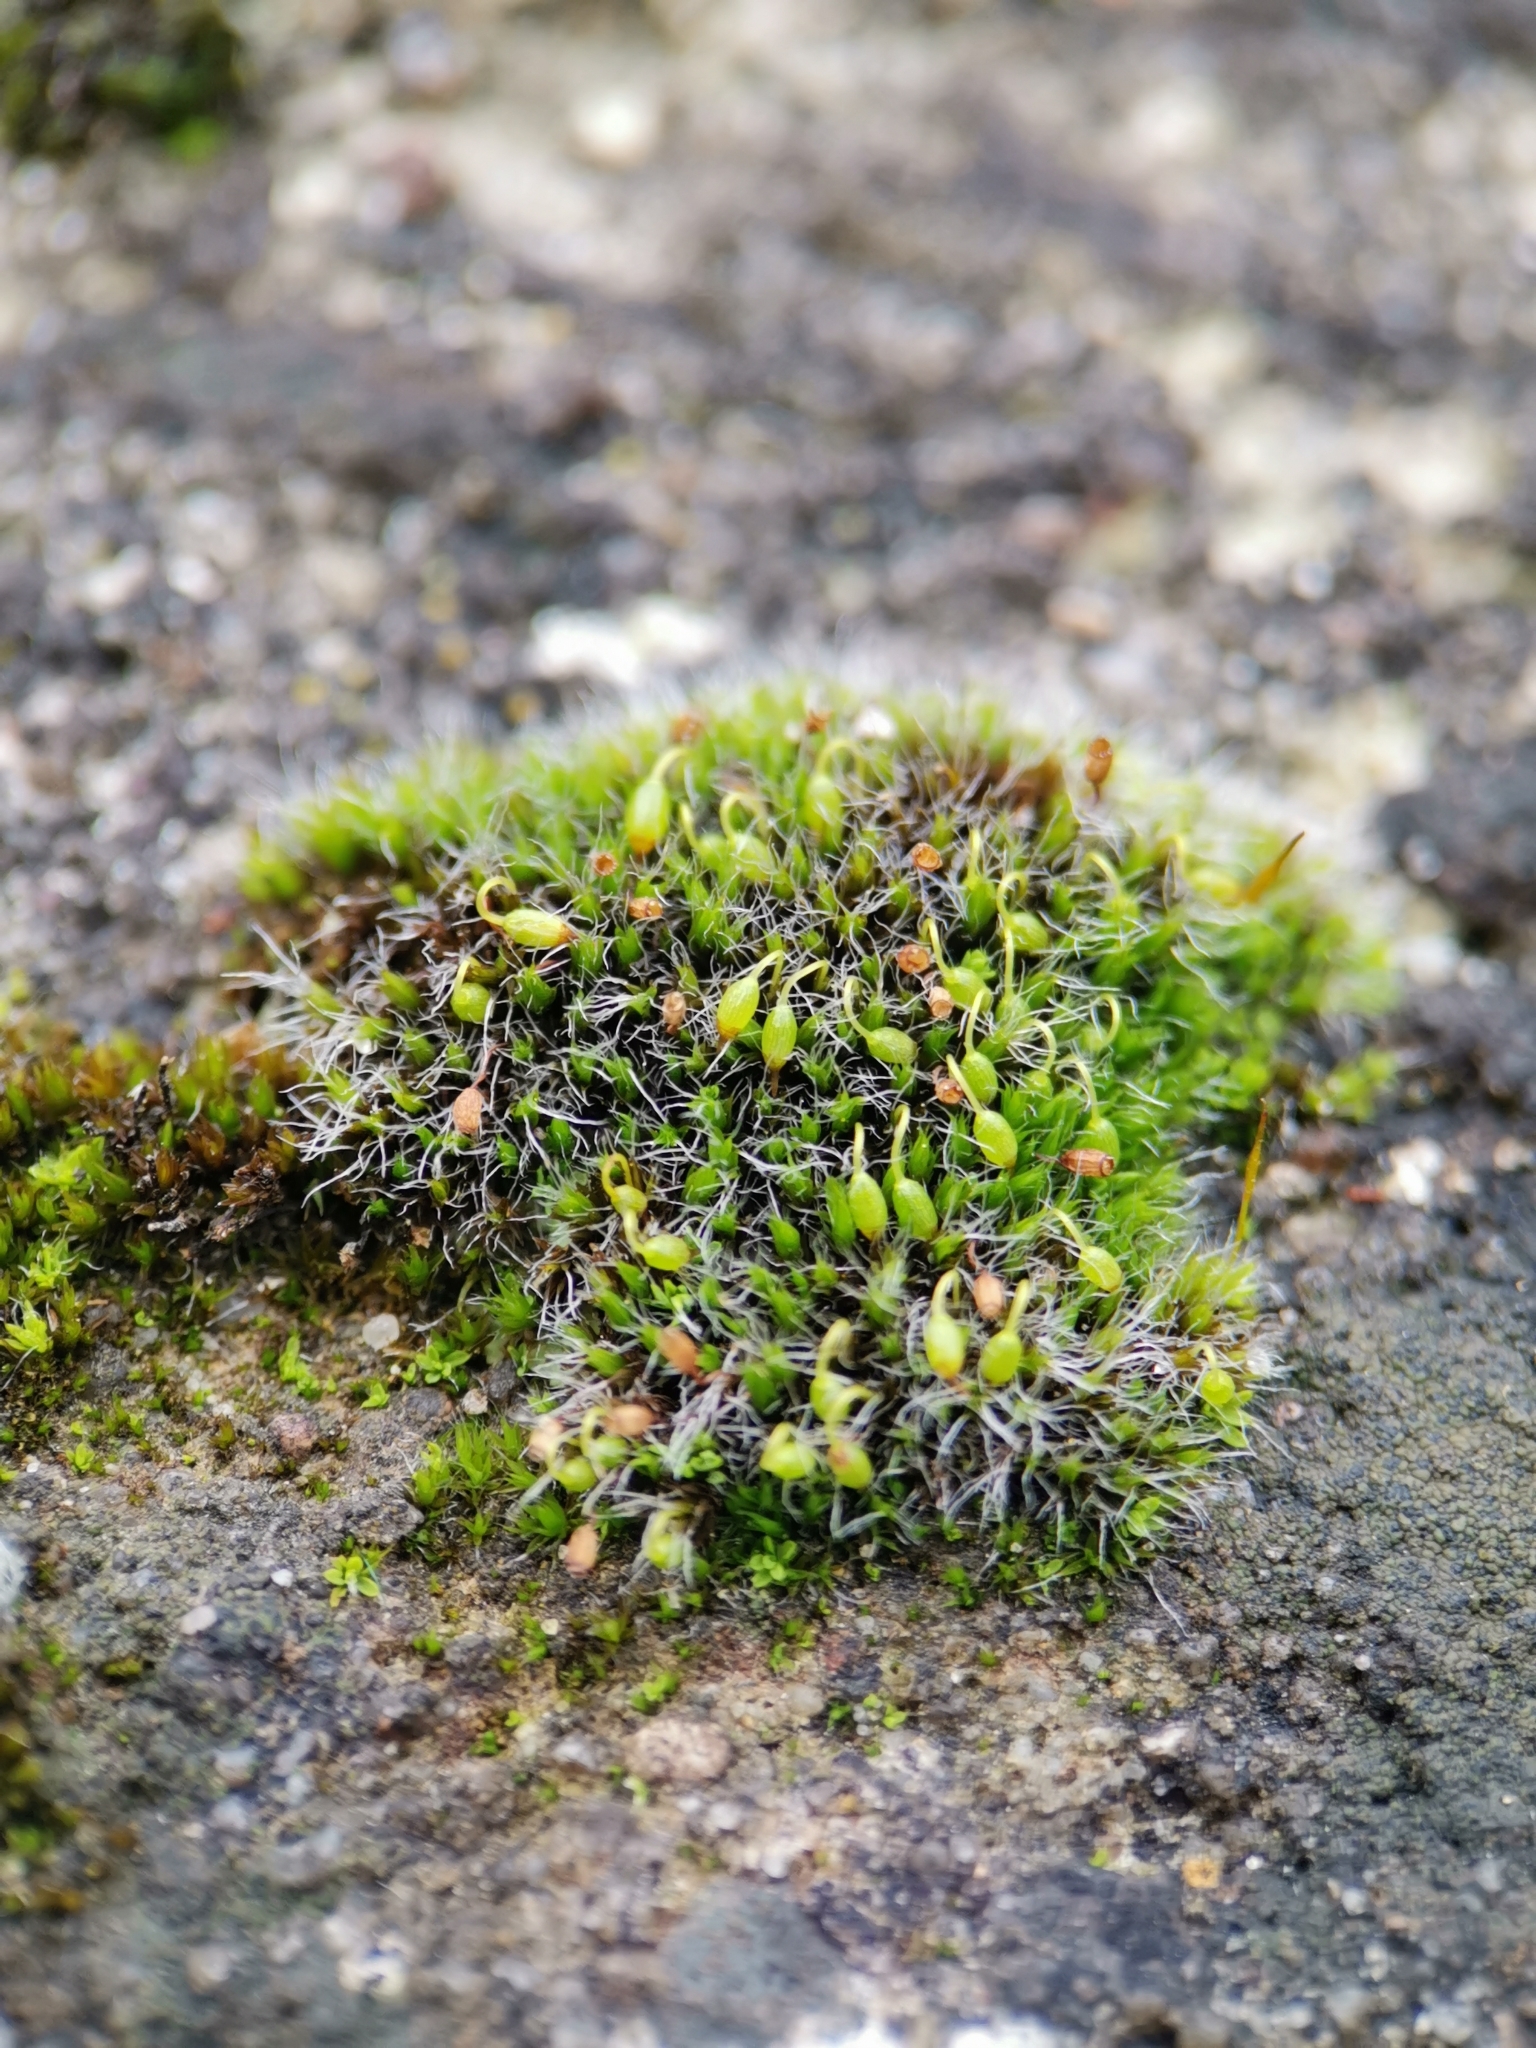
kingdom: Plantae
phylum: Bryophyta
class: Bryopsida
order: Grimmiales
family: Grimmiaceae
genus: Grimmia
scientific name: Grimmia pulvinata
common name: Grey-cushioned grimmia
